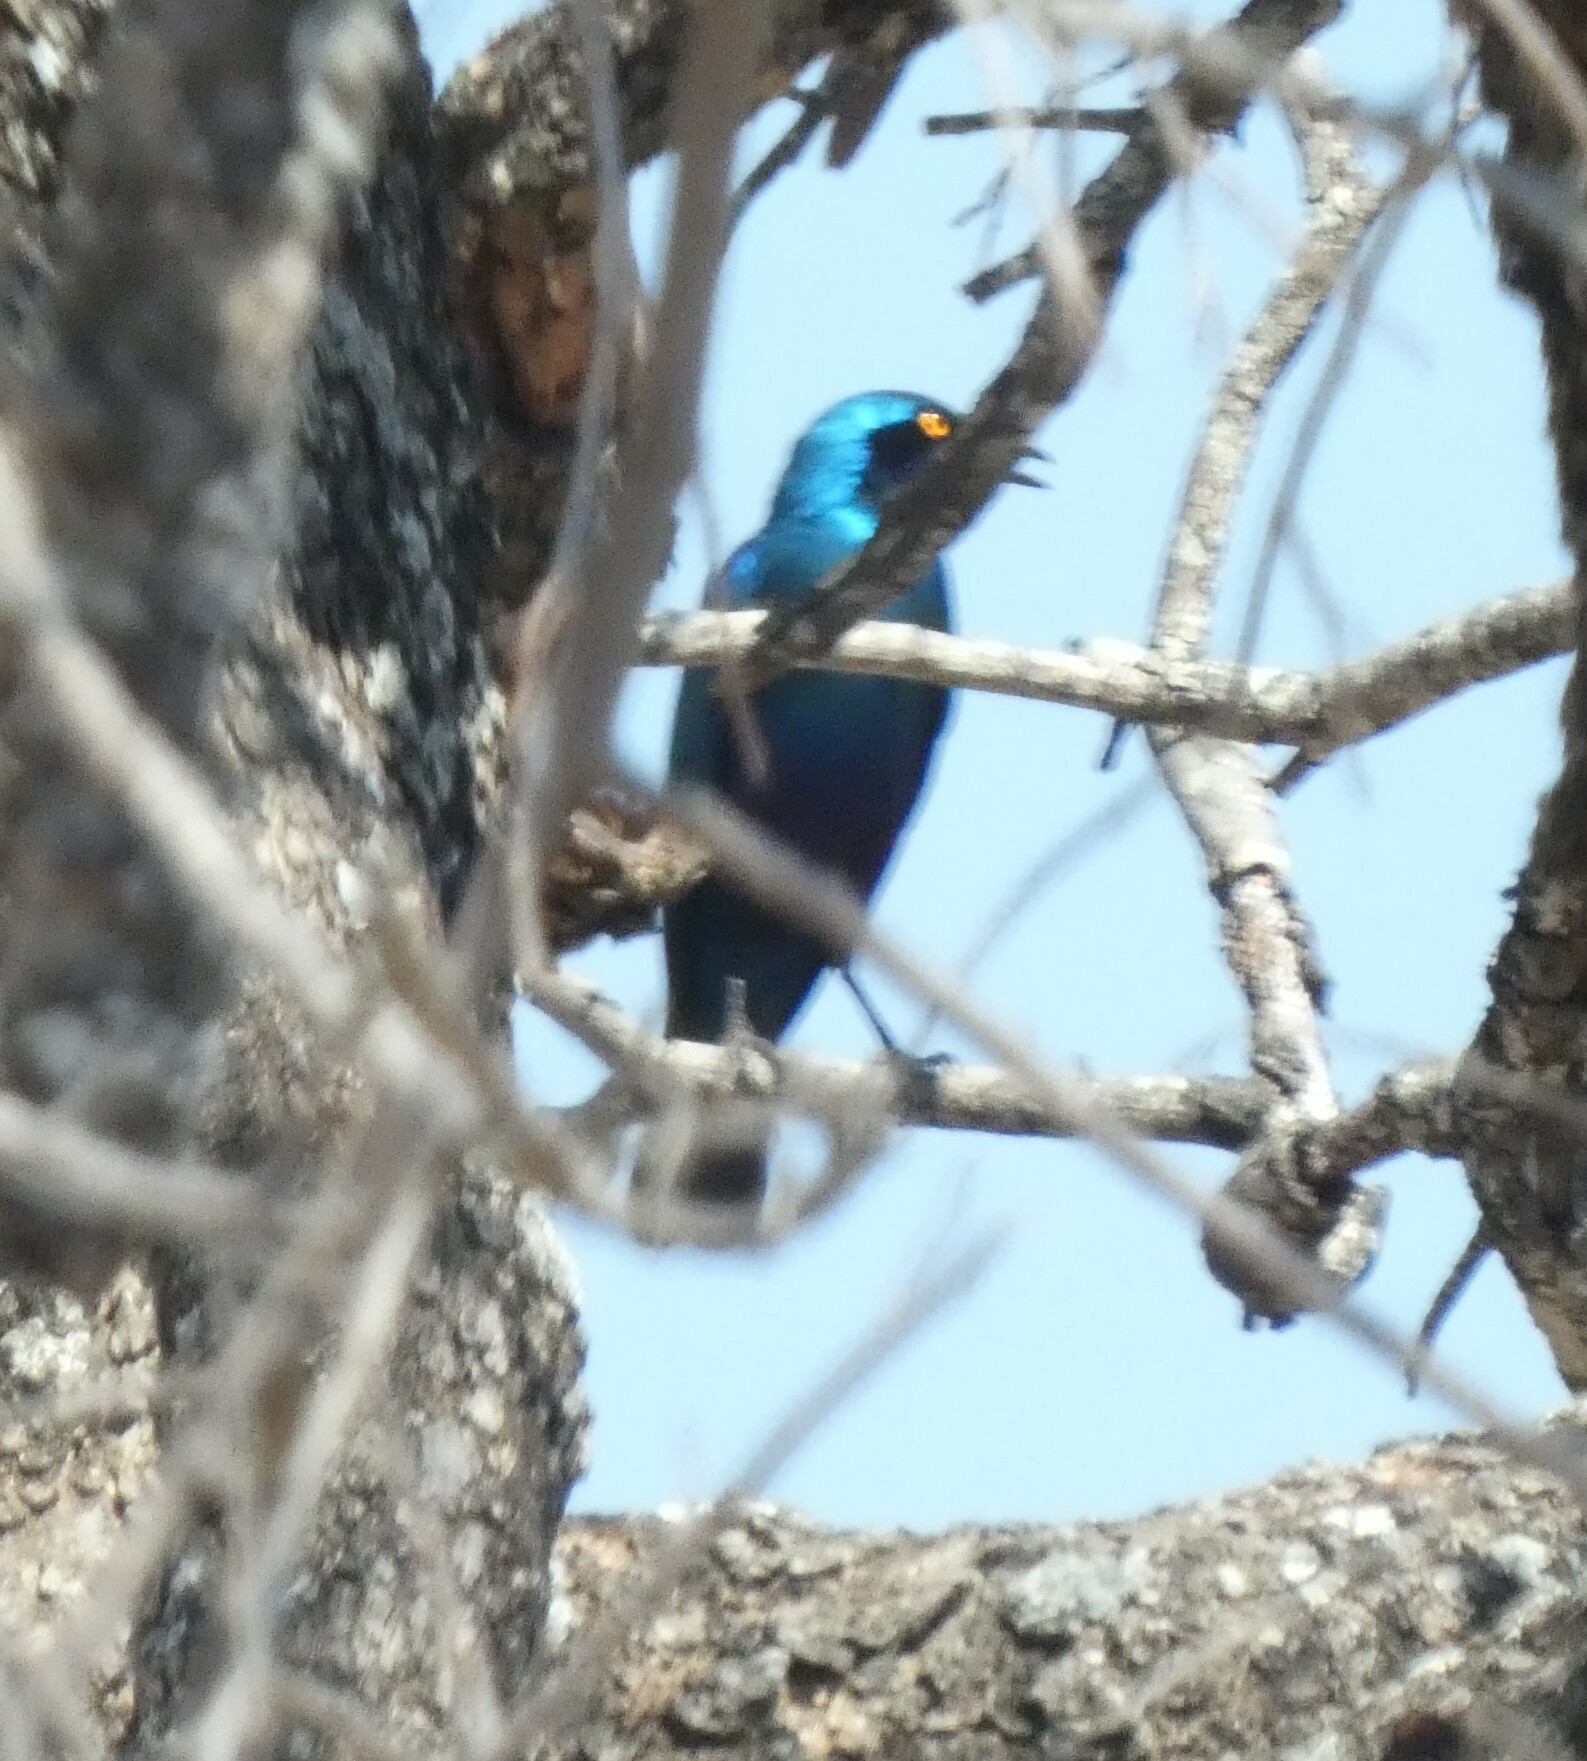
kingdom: Animalia
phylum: Chordata
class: Aves
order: Passeriformes
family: Sturnidae
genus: Lamprotornis
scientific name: Lamprotornis chalybaeus
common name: Greater blue-eared starling
